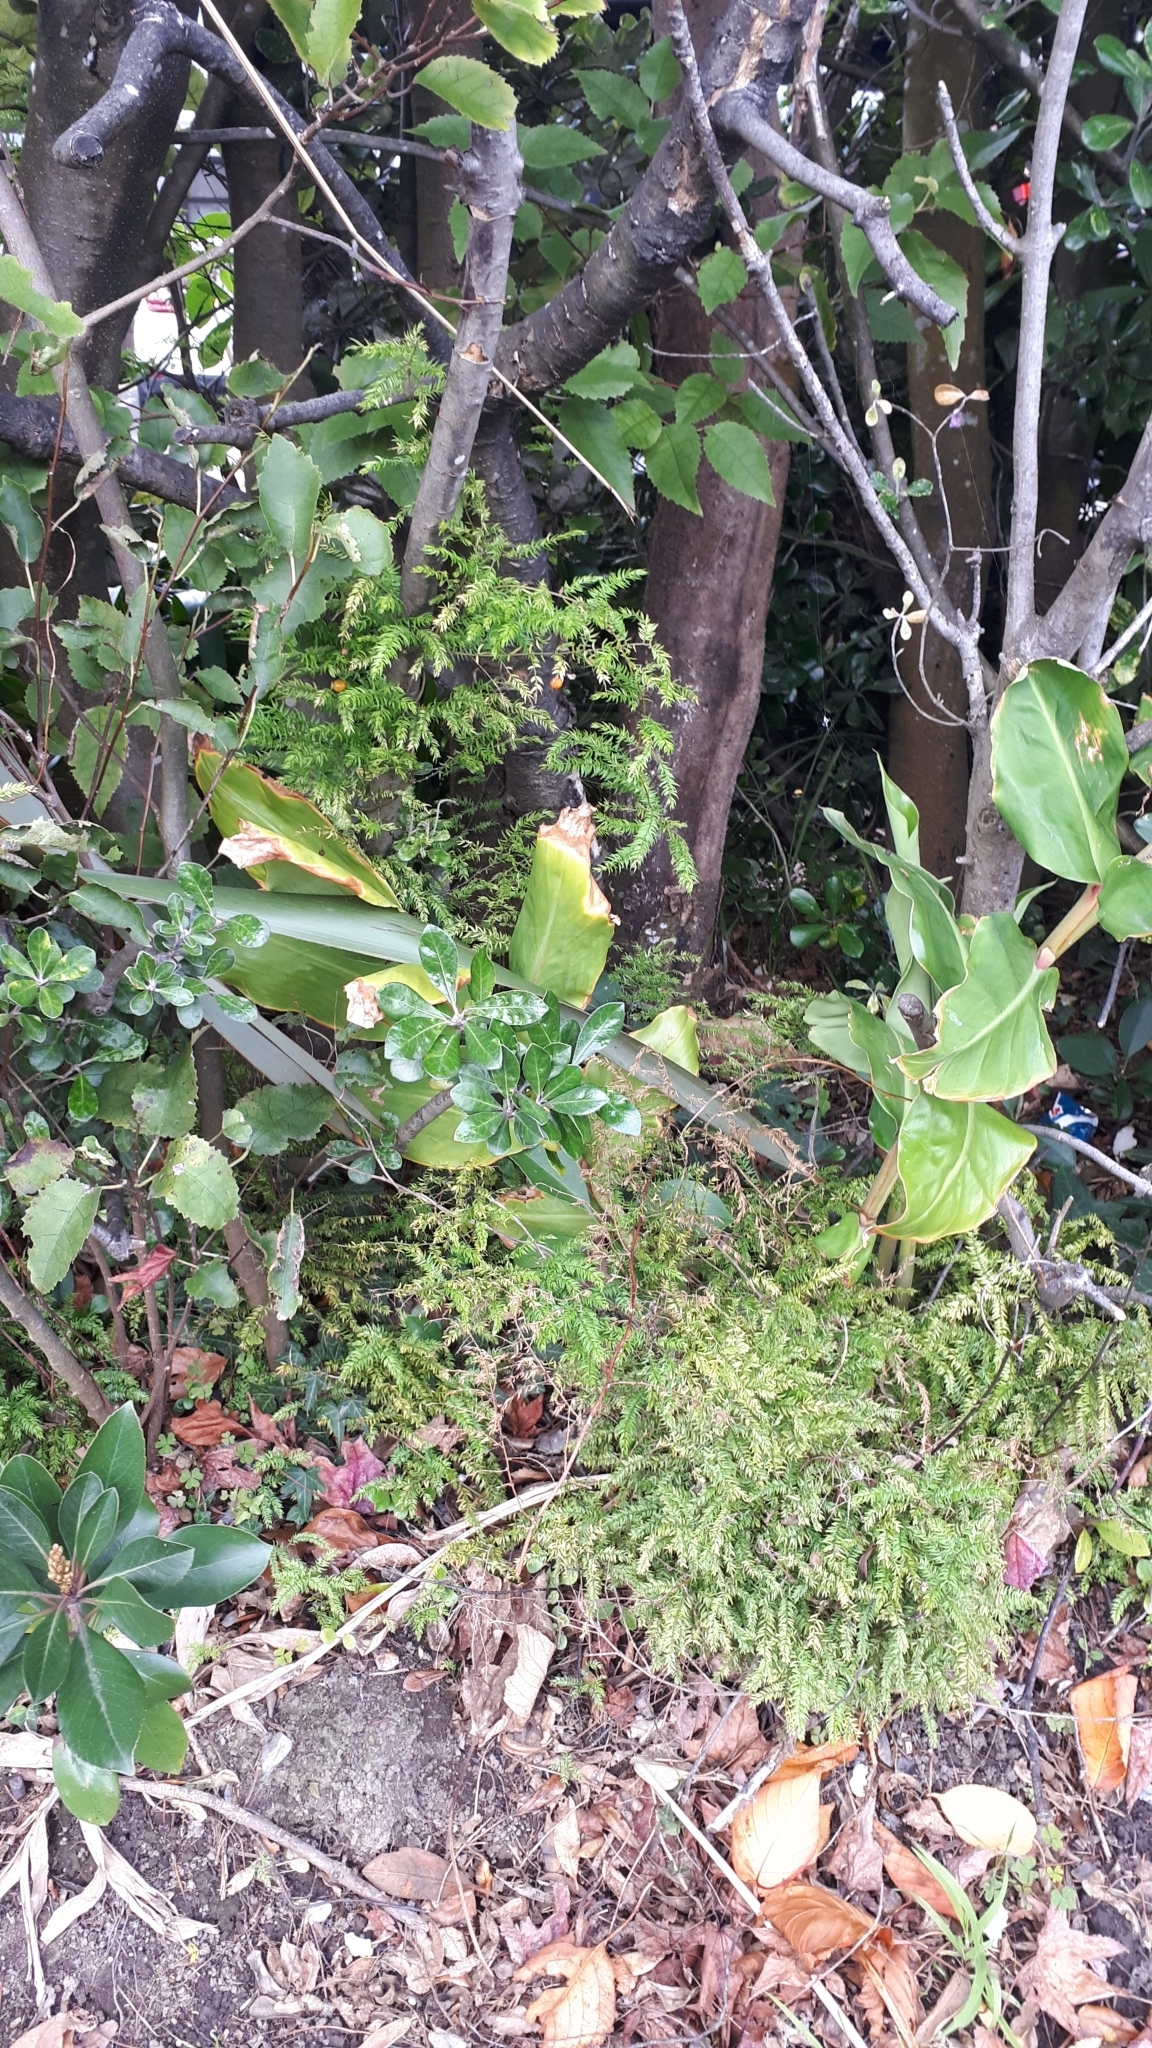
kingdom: Plantae
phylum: Tracheophyta
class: Liliopsida
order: Asparagales
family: Asparagaceae
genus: Asparagus
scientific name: Asparagus scandens
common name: Asparagus-fern
